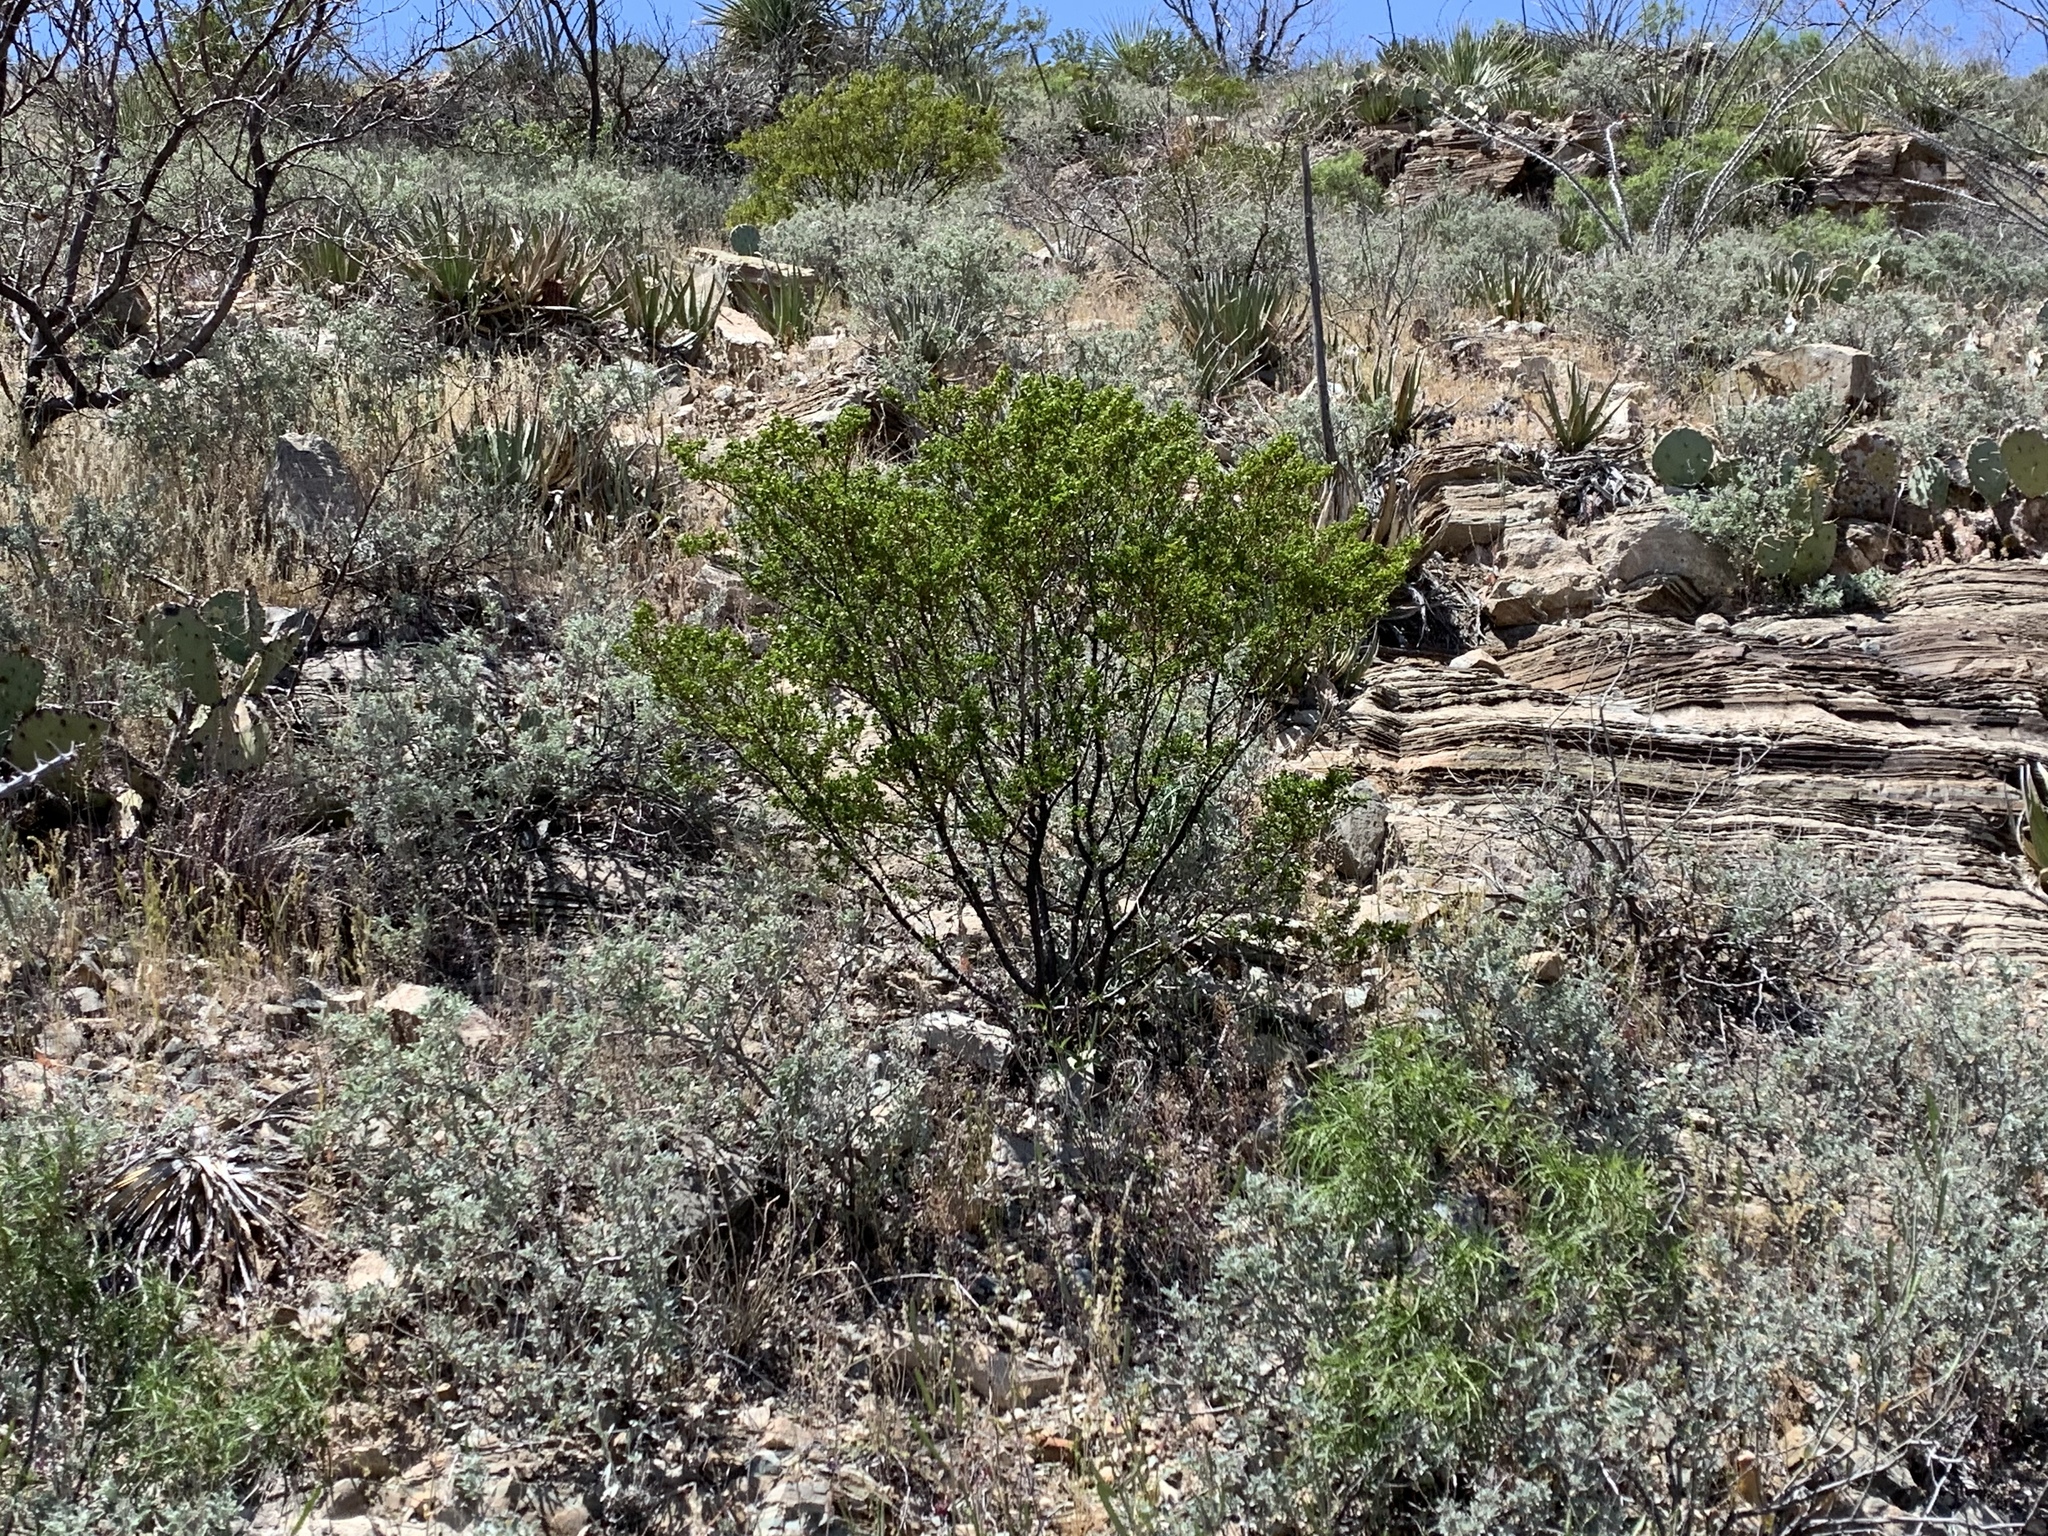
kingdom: Plantae
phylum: Tracheophyta
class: Magnoliopsida
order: Zygophyllales
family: Zygophyllaceae
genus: Larrea
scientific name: Larrea tridentata
